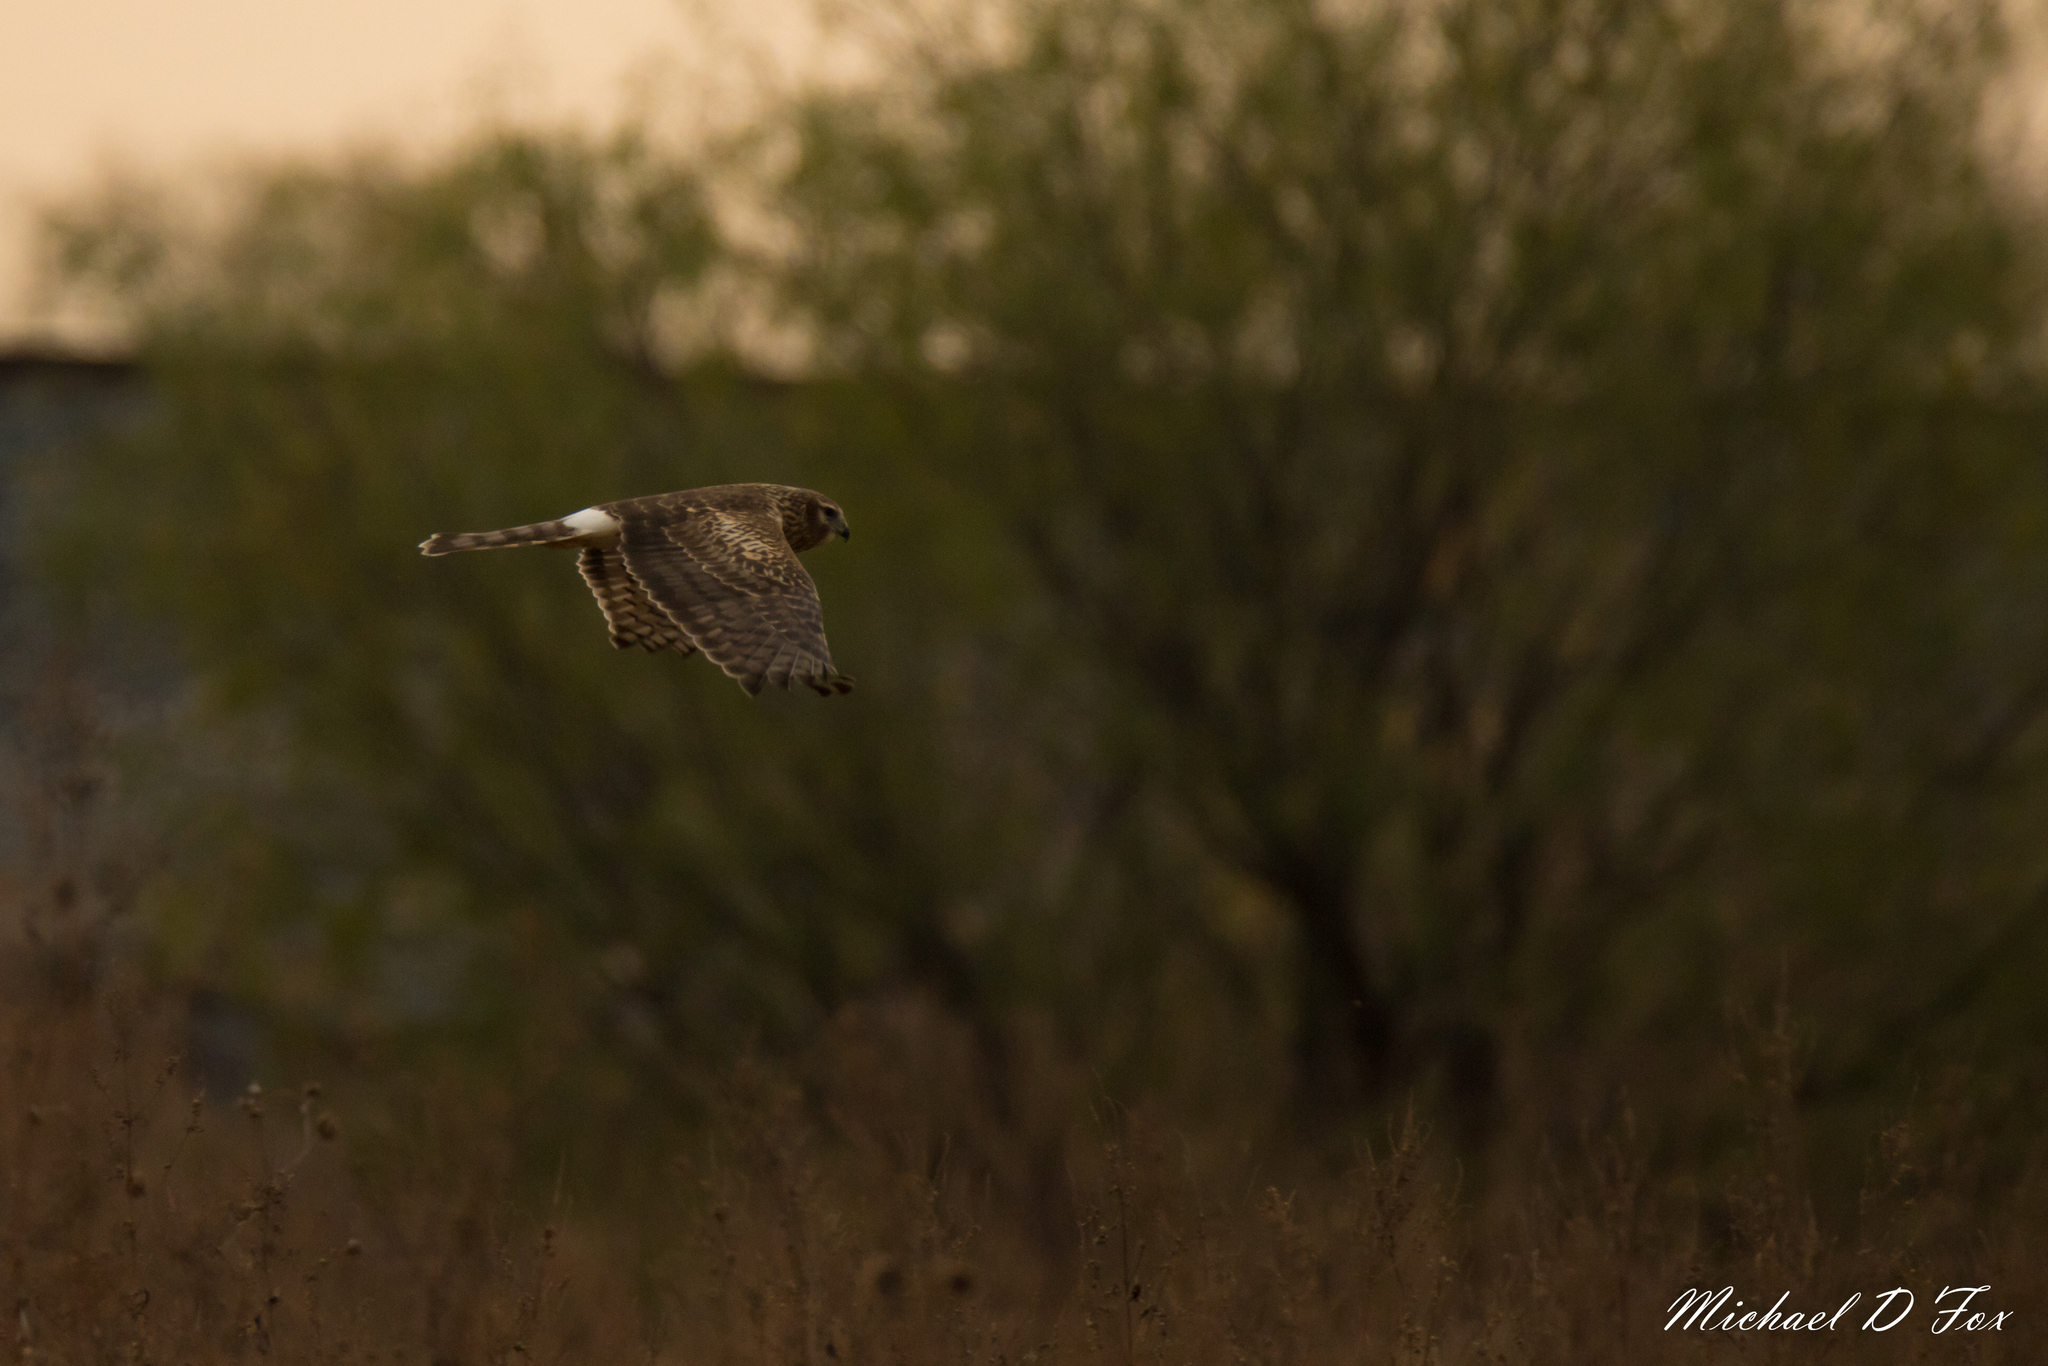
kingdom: Animalia
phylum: Chordata
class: Aves
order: Accipitriformes
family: Accipitridae
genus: Circus
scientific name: Circus cyaneus
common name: Hen harrier
